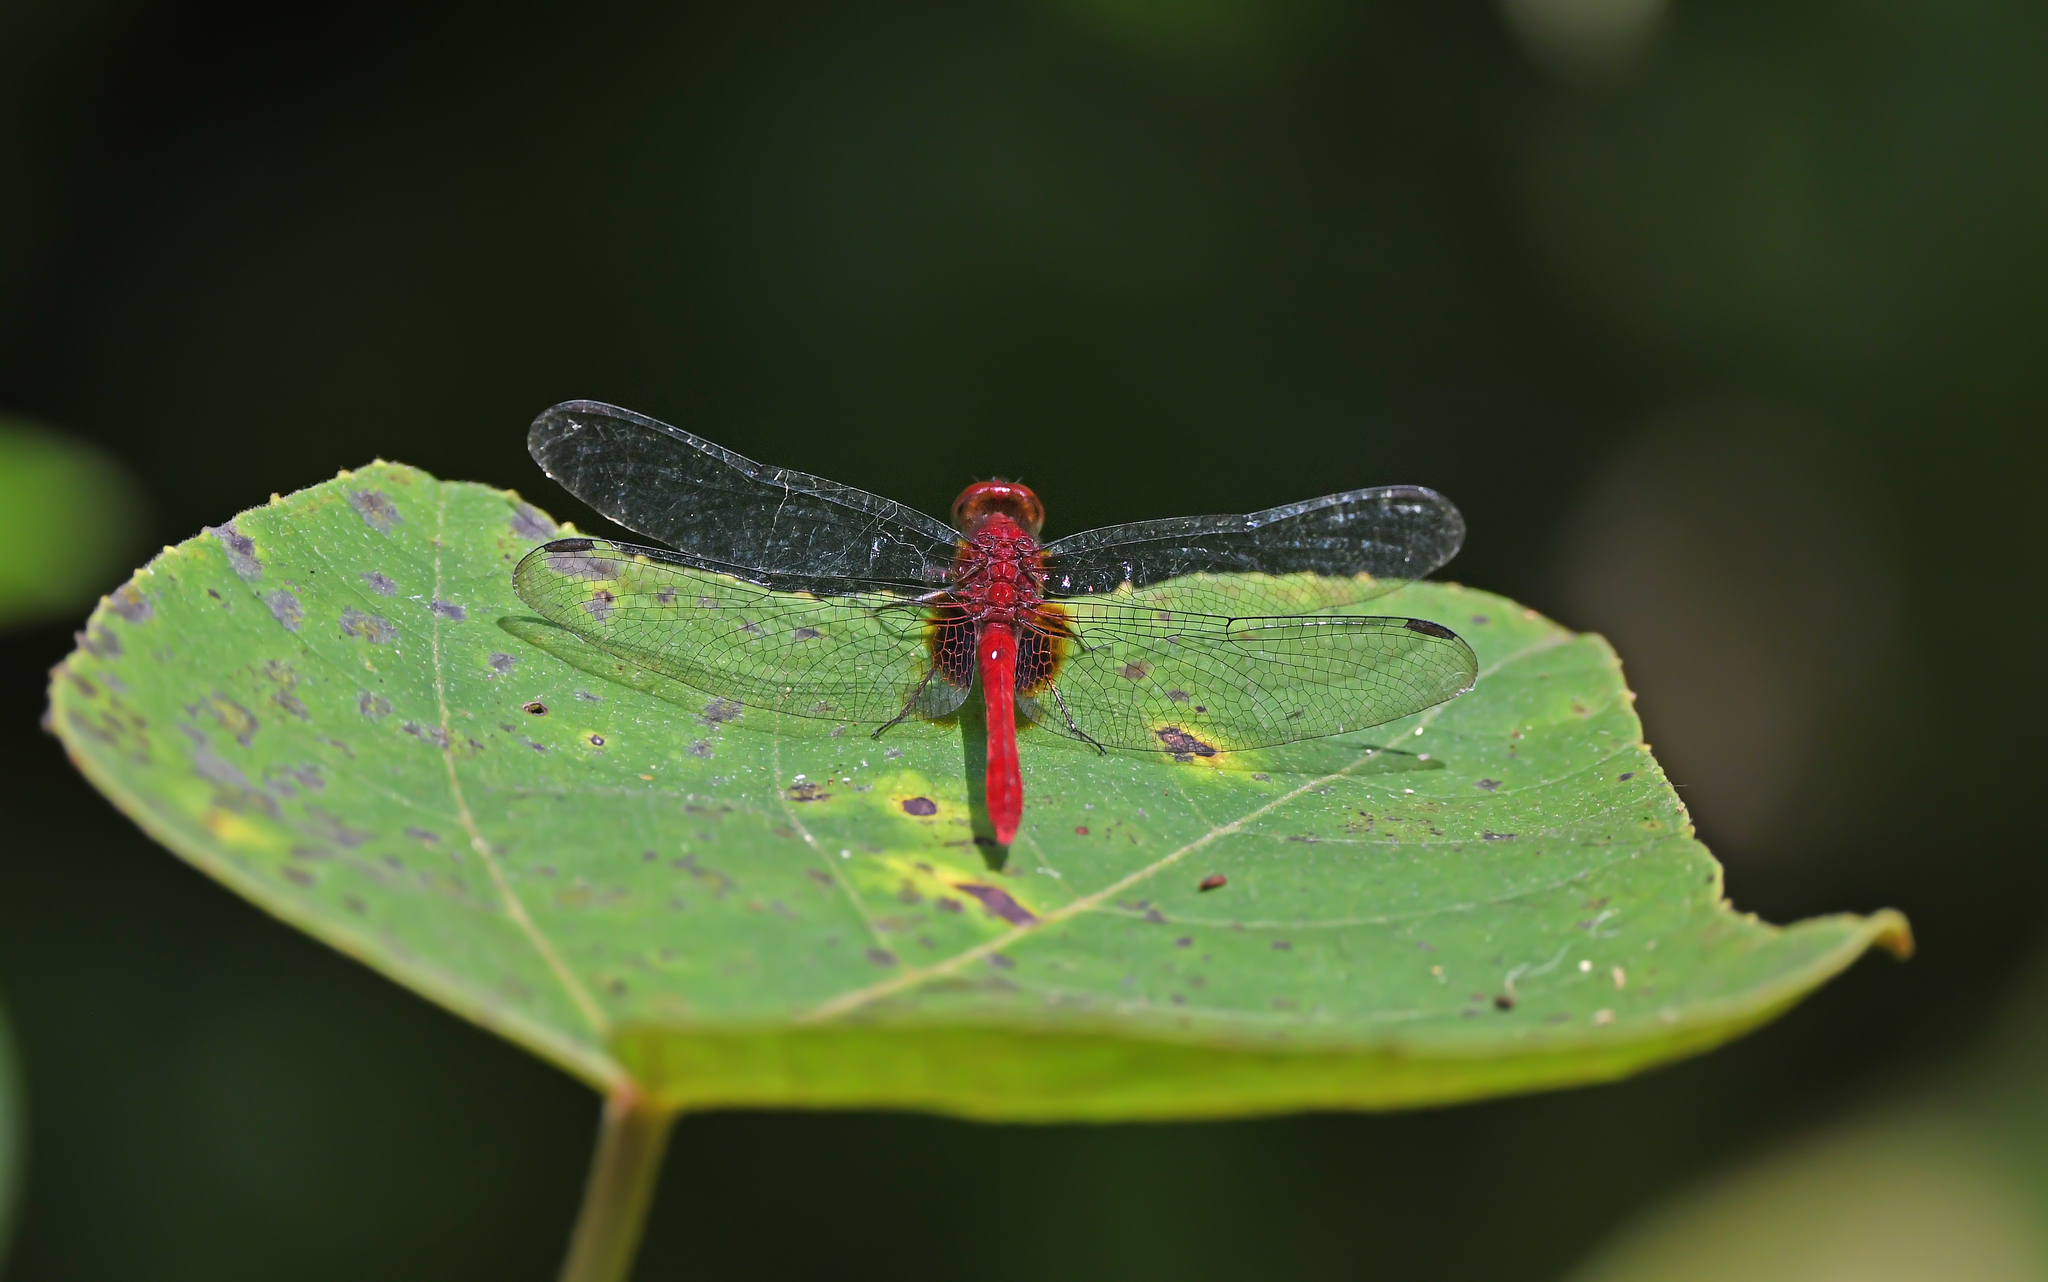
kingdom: Animalia
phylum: Arthropoda
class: Insecta
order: Odonata
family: Libellulidae
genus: Erythrodiplax
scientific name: Erythrodiplax castanea
